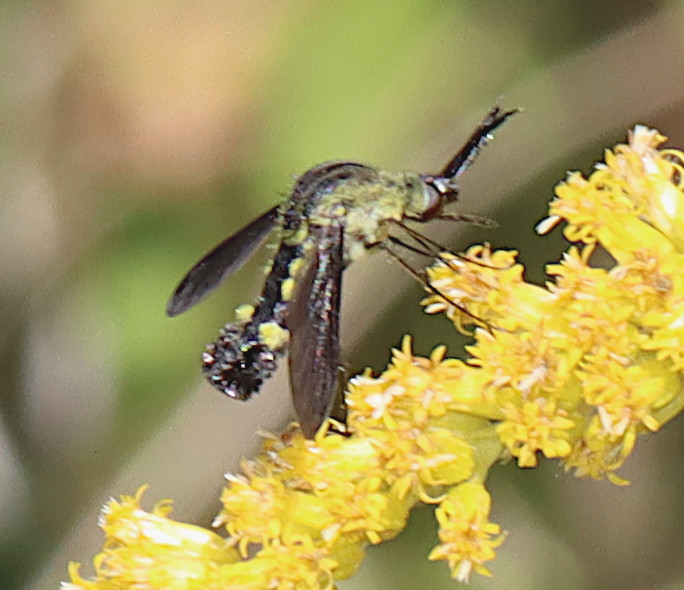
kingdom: Animalia
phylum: Arthropoda
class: Insecta
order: Diptera
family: Bombyliidae
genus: Lepidophora
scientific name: Lepidophora lepidocera
